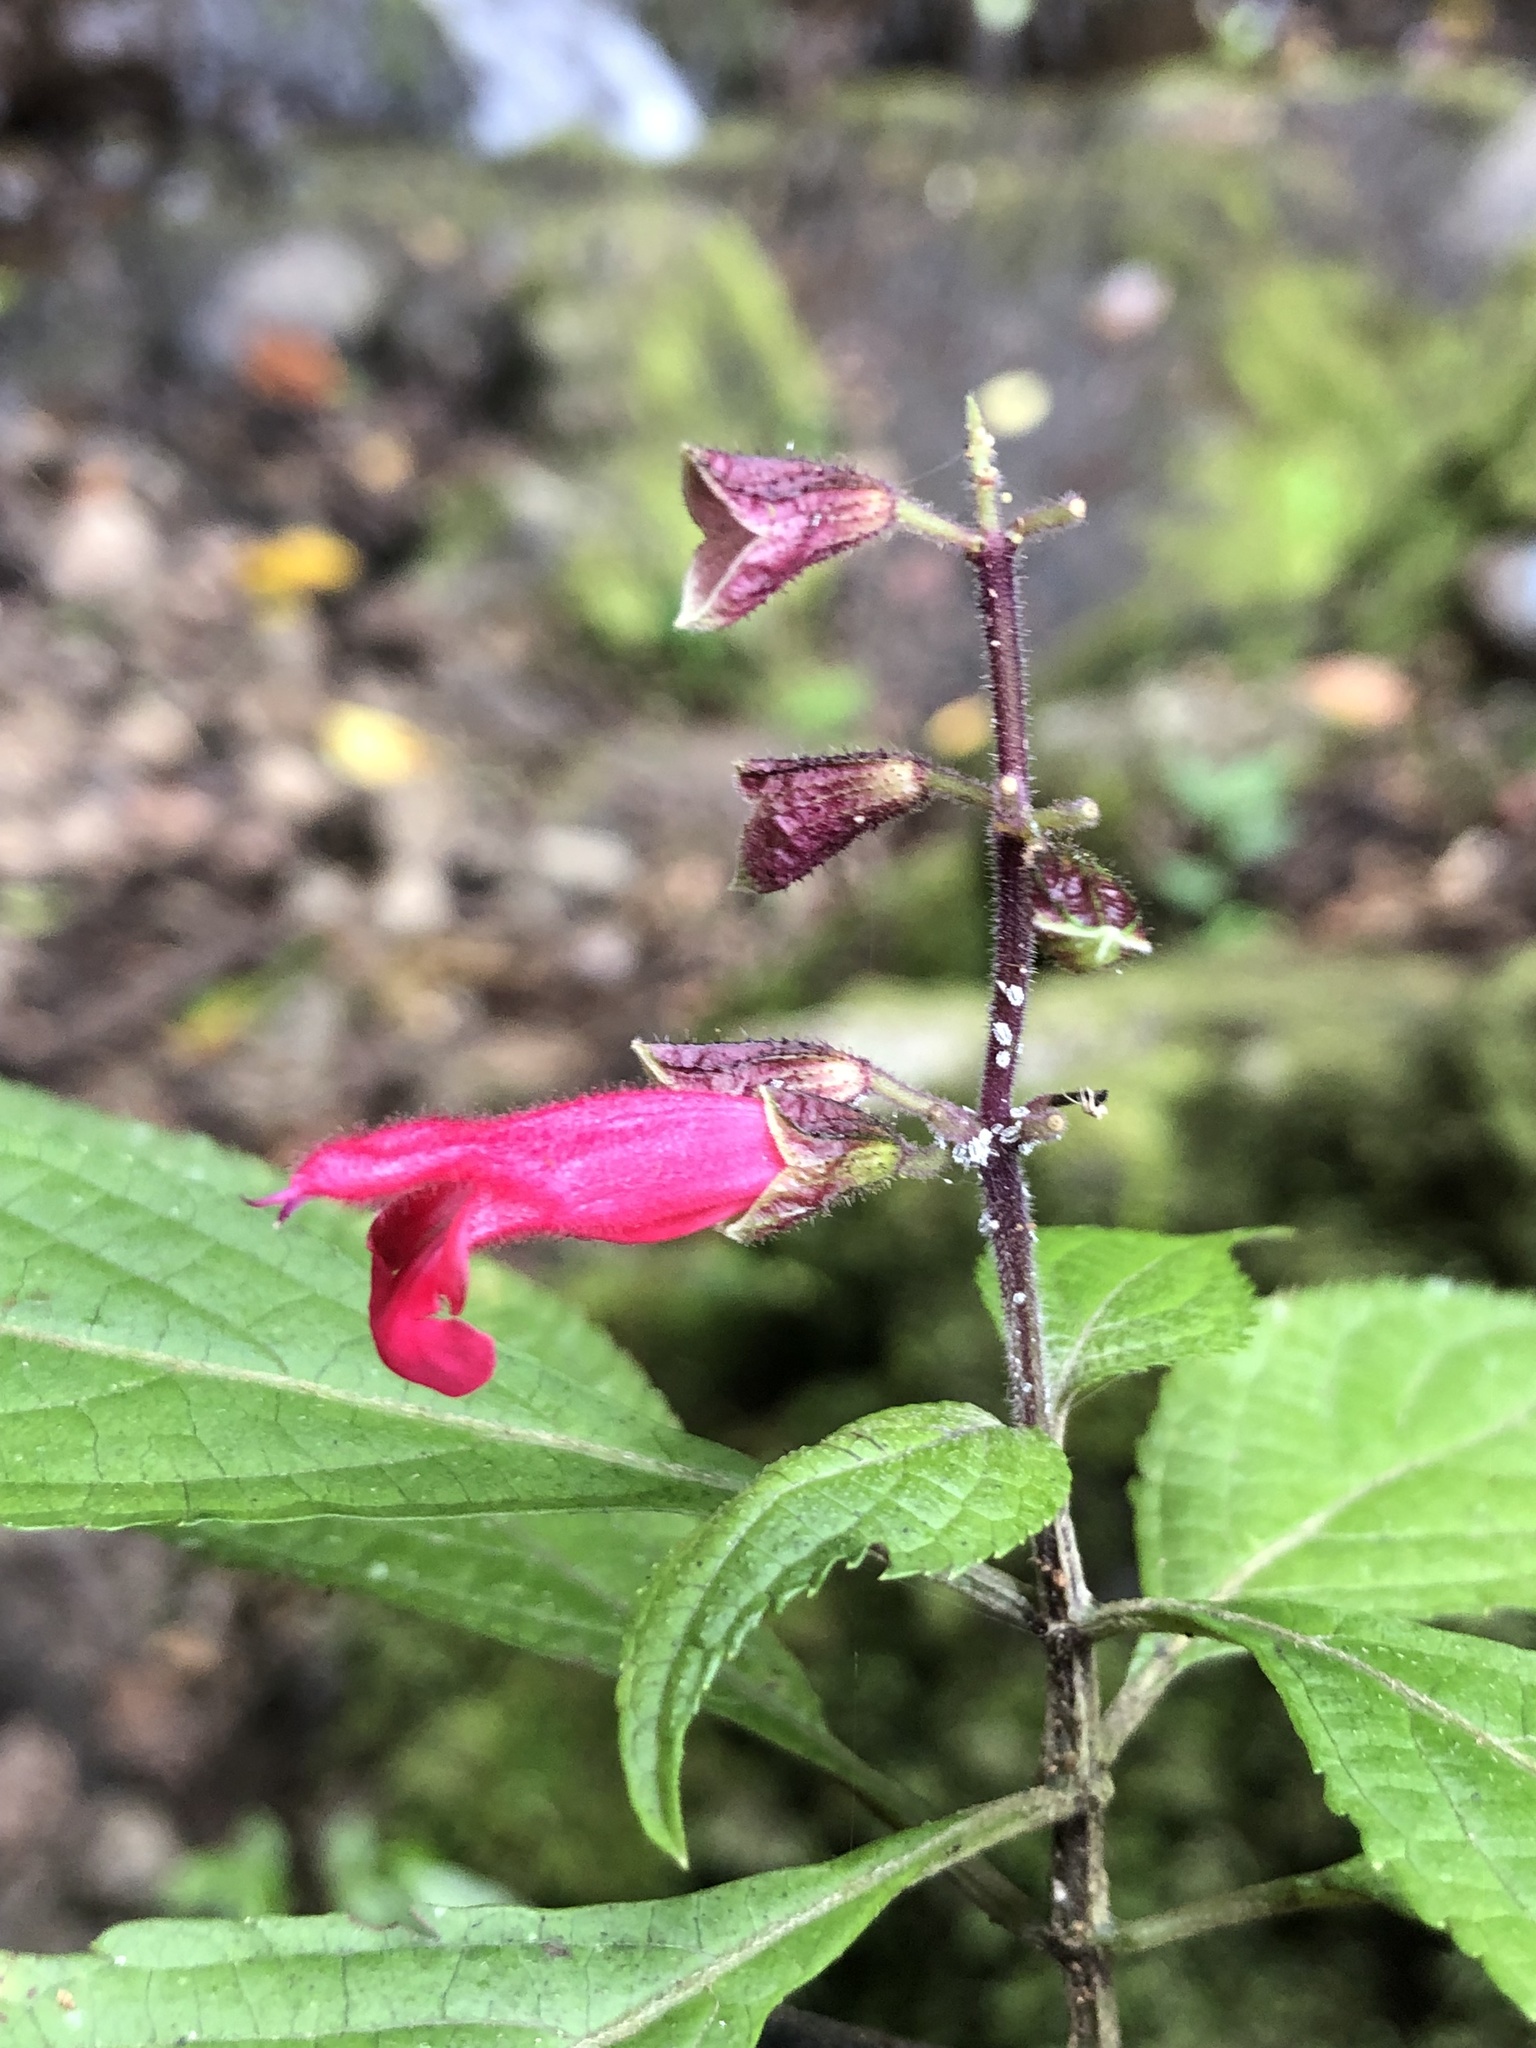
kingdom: Plantae
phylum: Tracheophyta
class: Magnoliopsida
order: Lamiales
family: Lamiaceae
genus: Salvia
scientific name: Salvia venulosa
